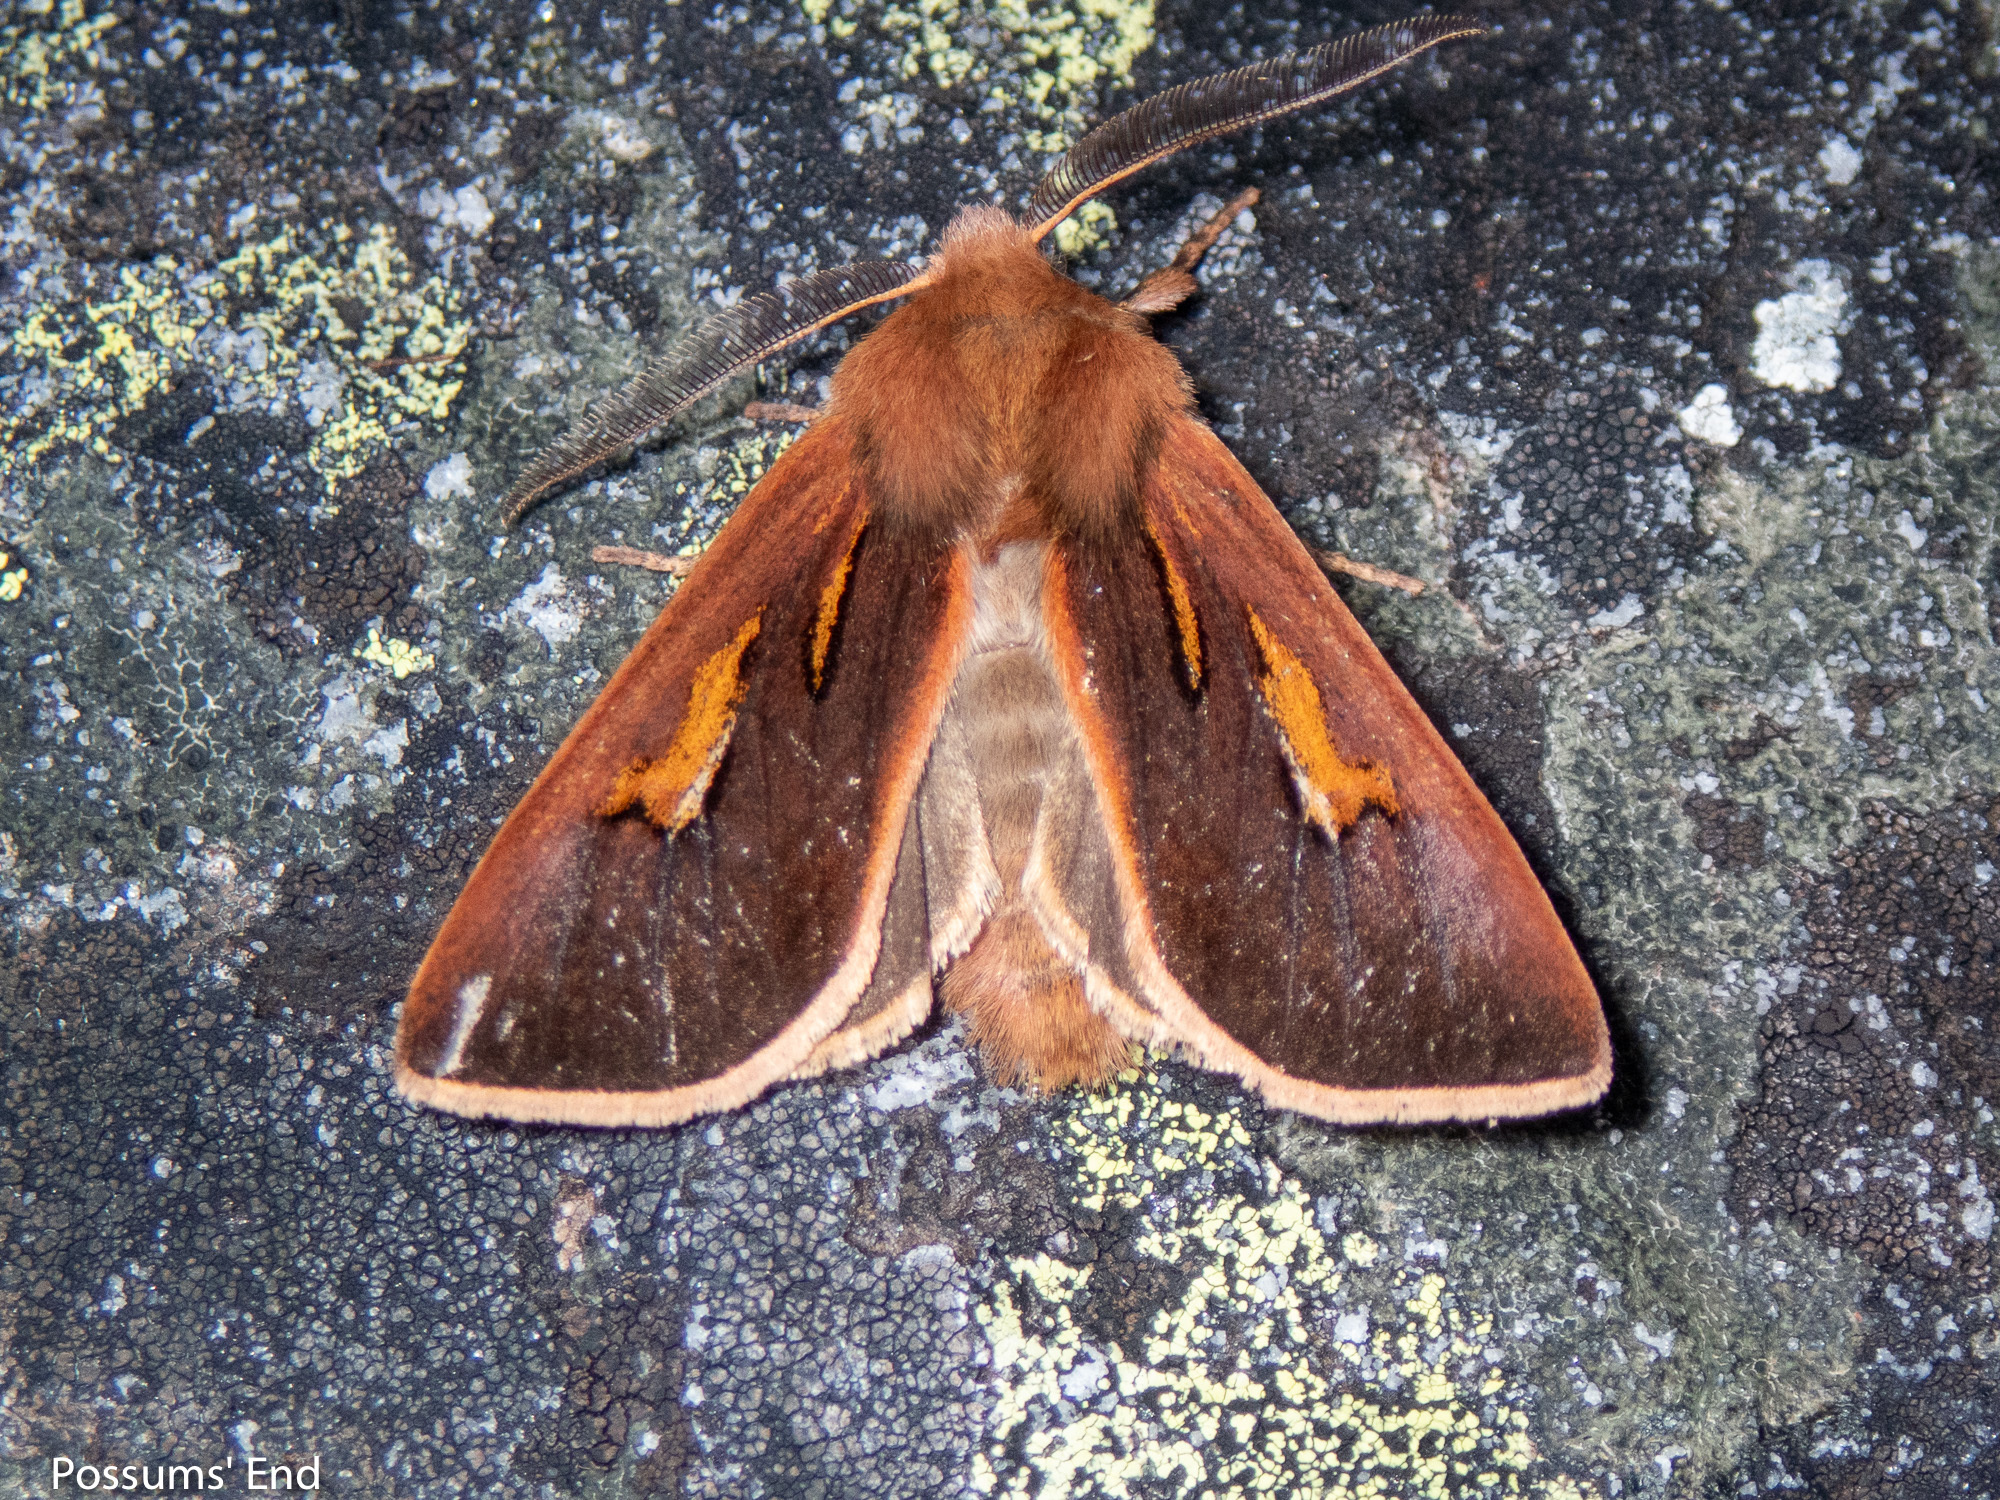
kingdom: Animalia
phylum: Arthropoda
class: Insecta
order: Lepidoptera
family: Noctuidae
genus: Ichneutica
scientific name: Ichneutica dione
